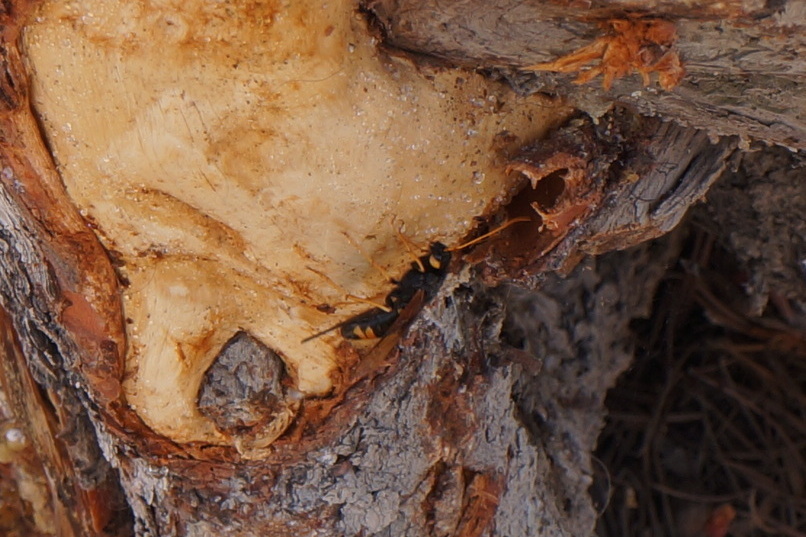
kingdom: Animalia
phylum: Arthropoda
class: Insecta
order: Hymenoptera
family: Siricidae
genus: Urocerus
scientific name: Urocerus flavicornis
